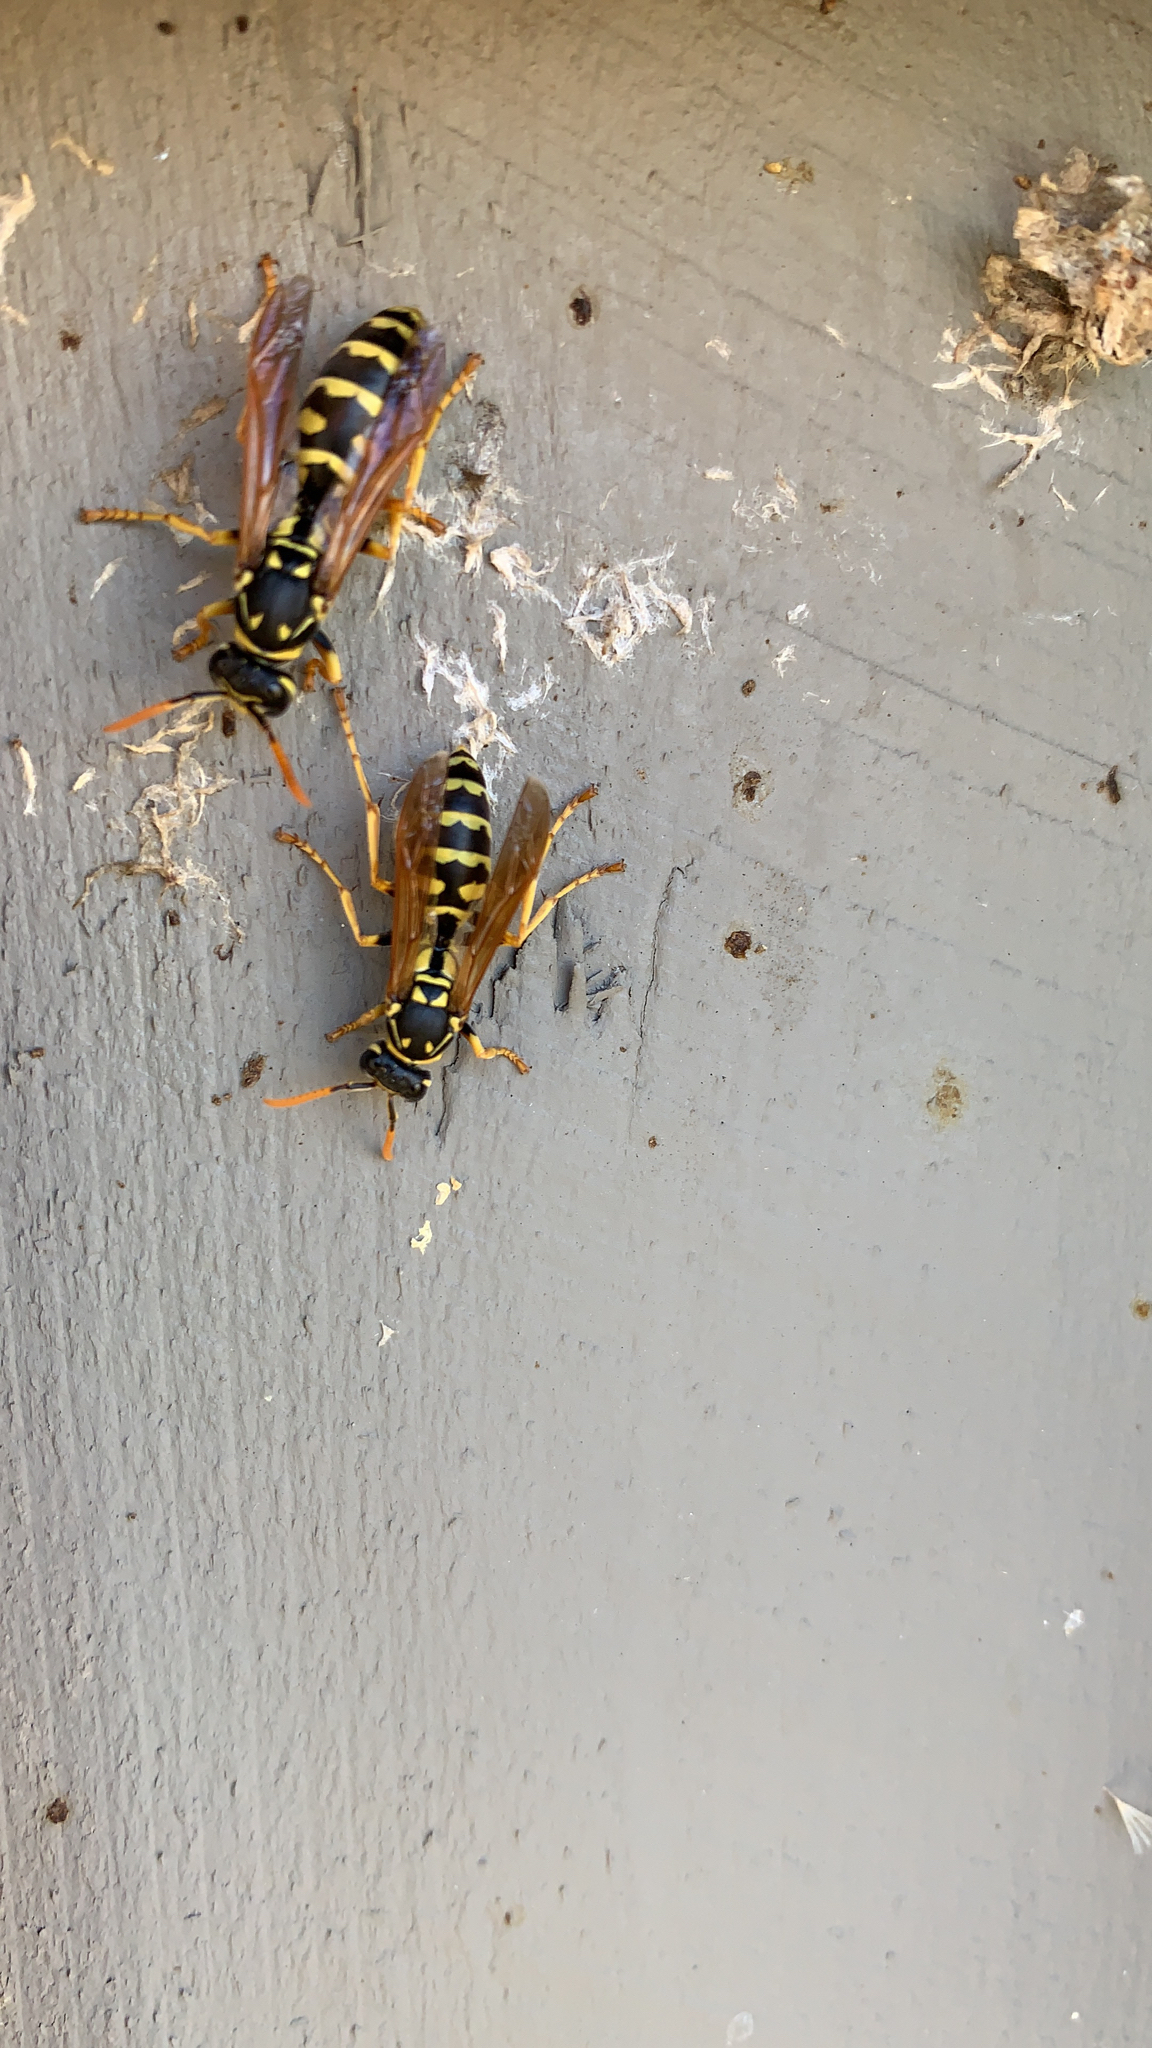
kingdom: Animalia
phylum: Arthropoda
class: Insecta
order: Hymenoptera
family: Eumenidae
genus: Polistes
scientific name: Polistes dominula
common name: Paper wasp
